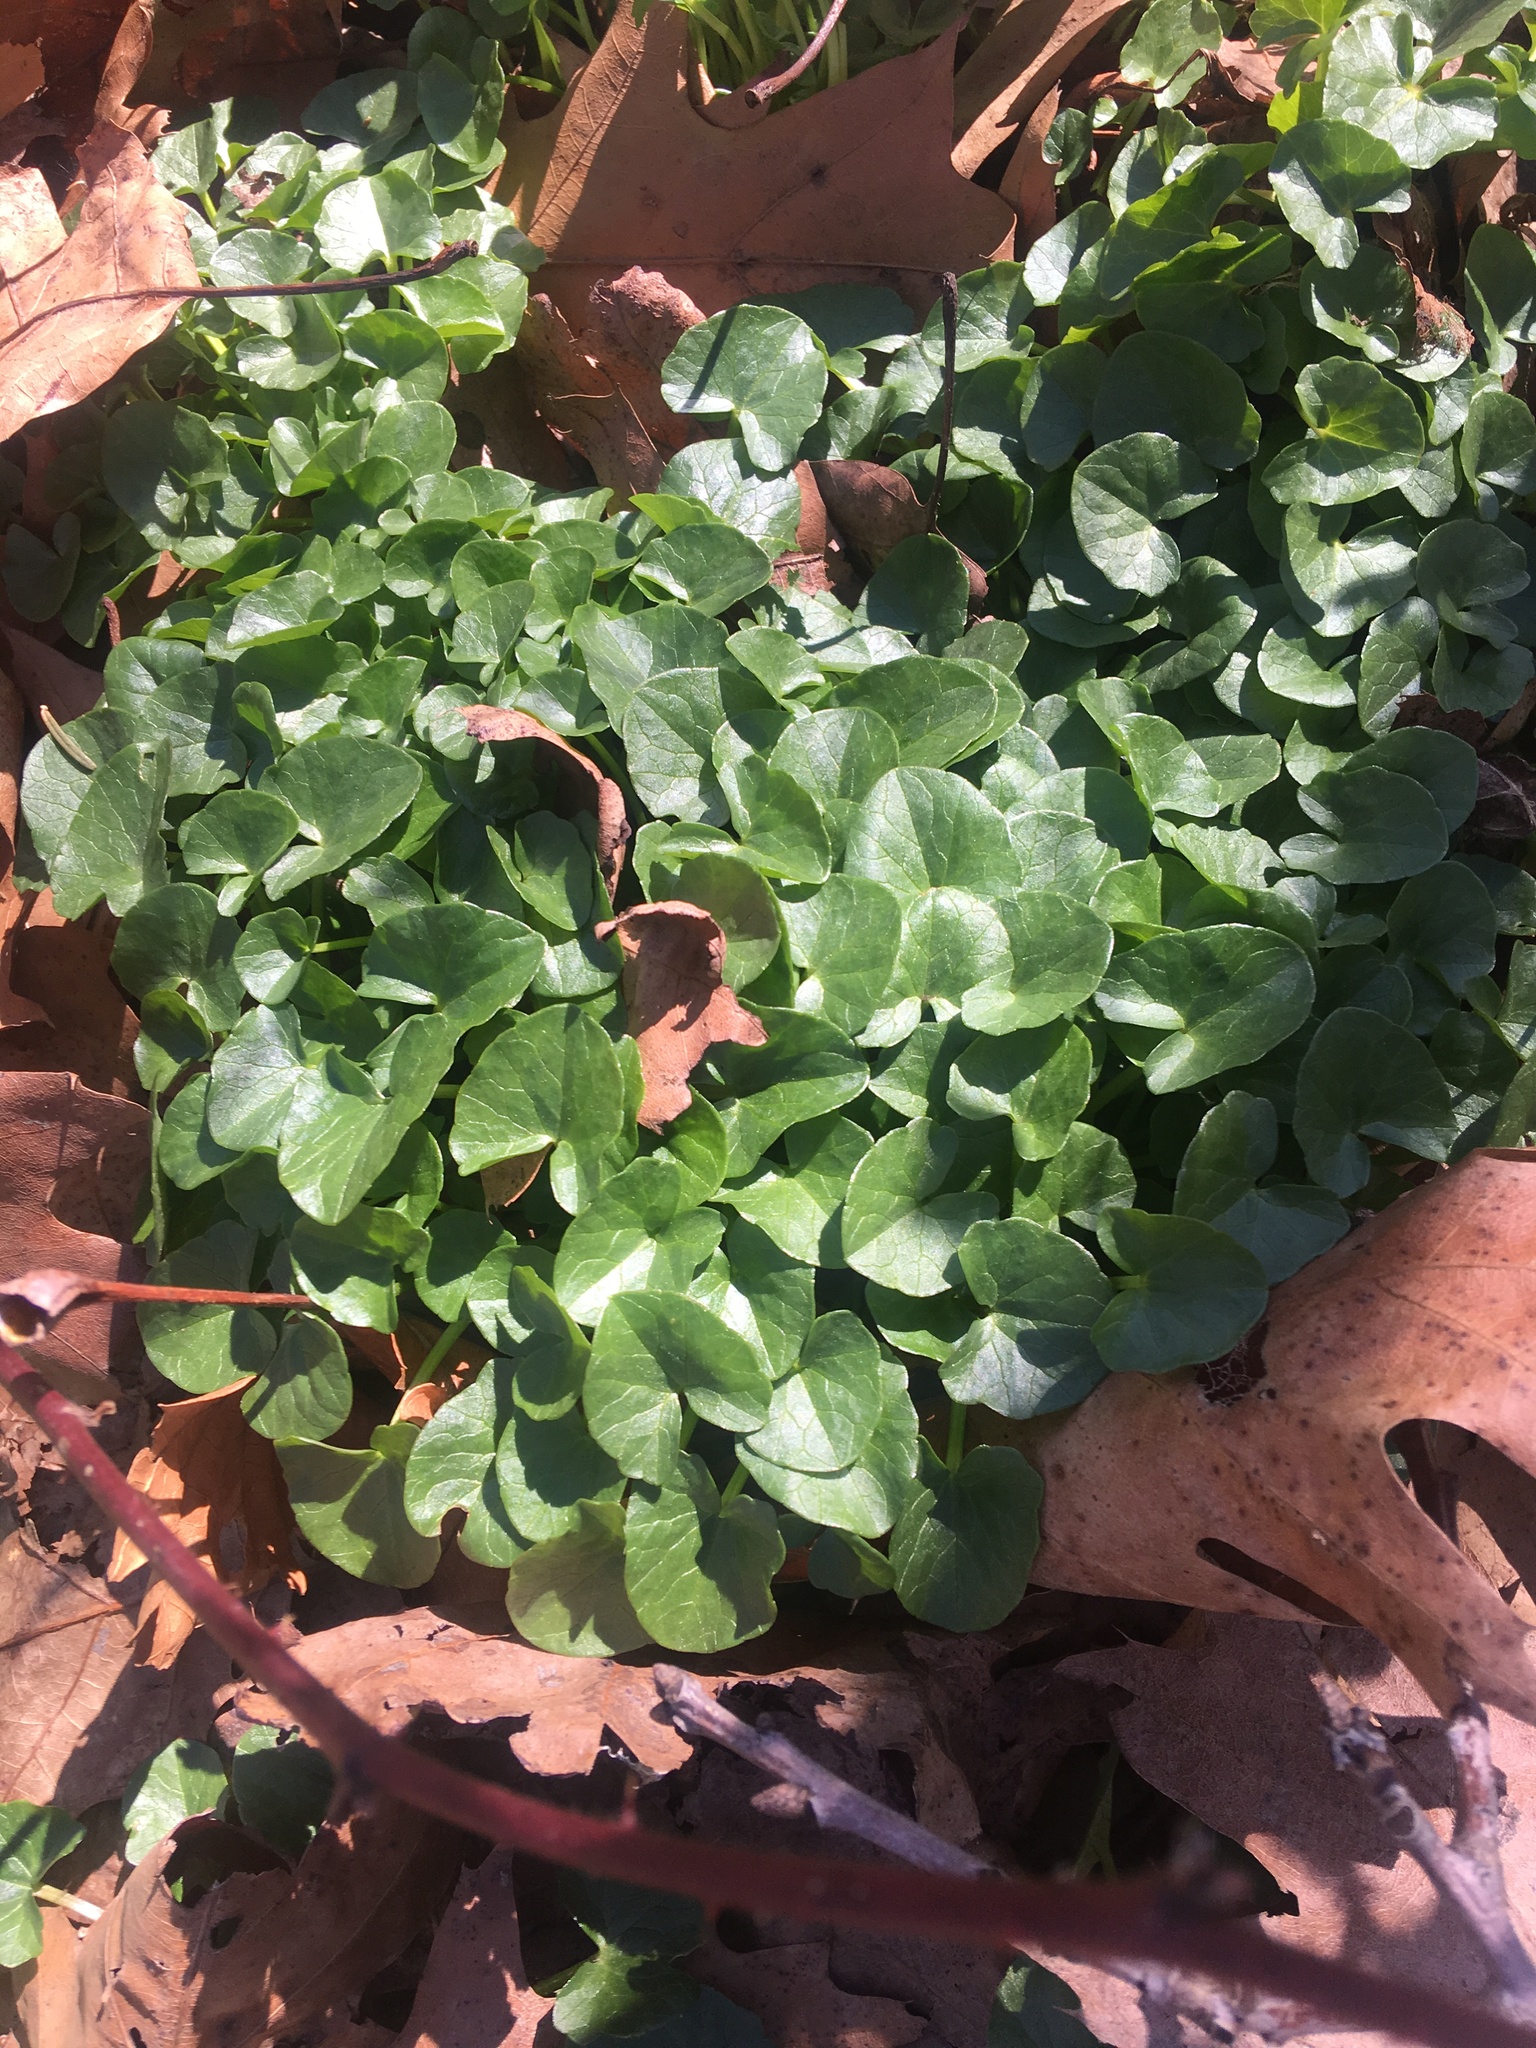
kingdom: Plantae
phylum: Tracheophyta
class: Magnoliopsida
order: Ranunculales
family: Ranunculaceae
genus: Ficaria
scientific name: Ficaria verna
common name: Lesser celandine
